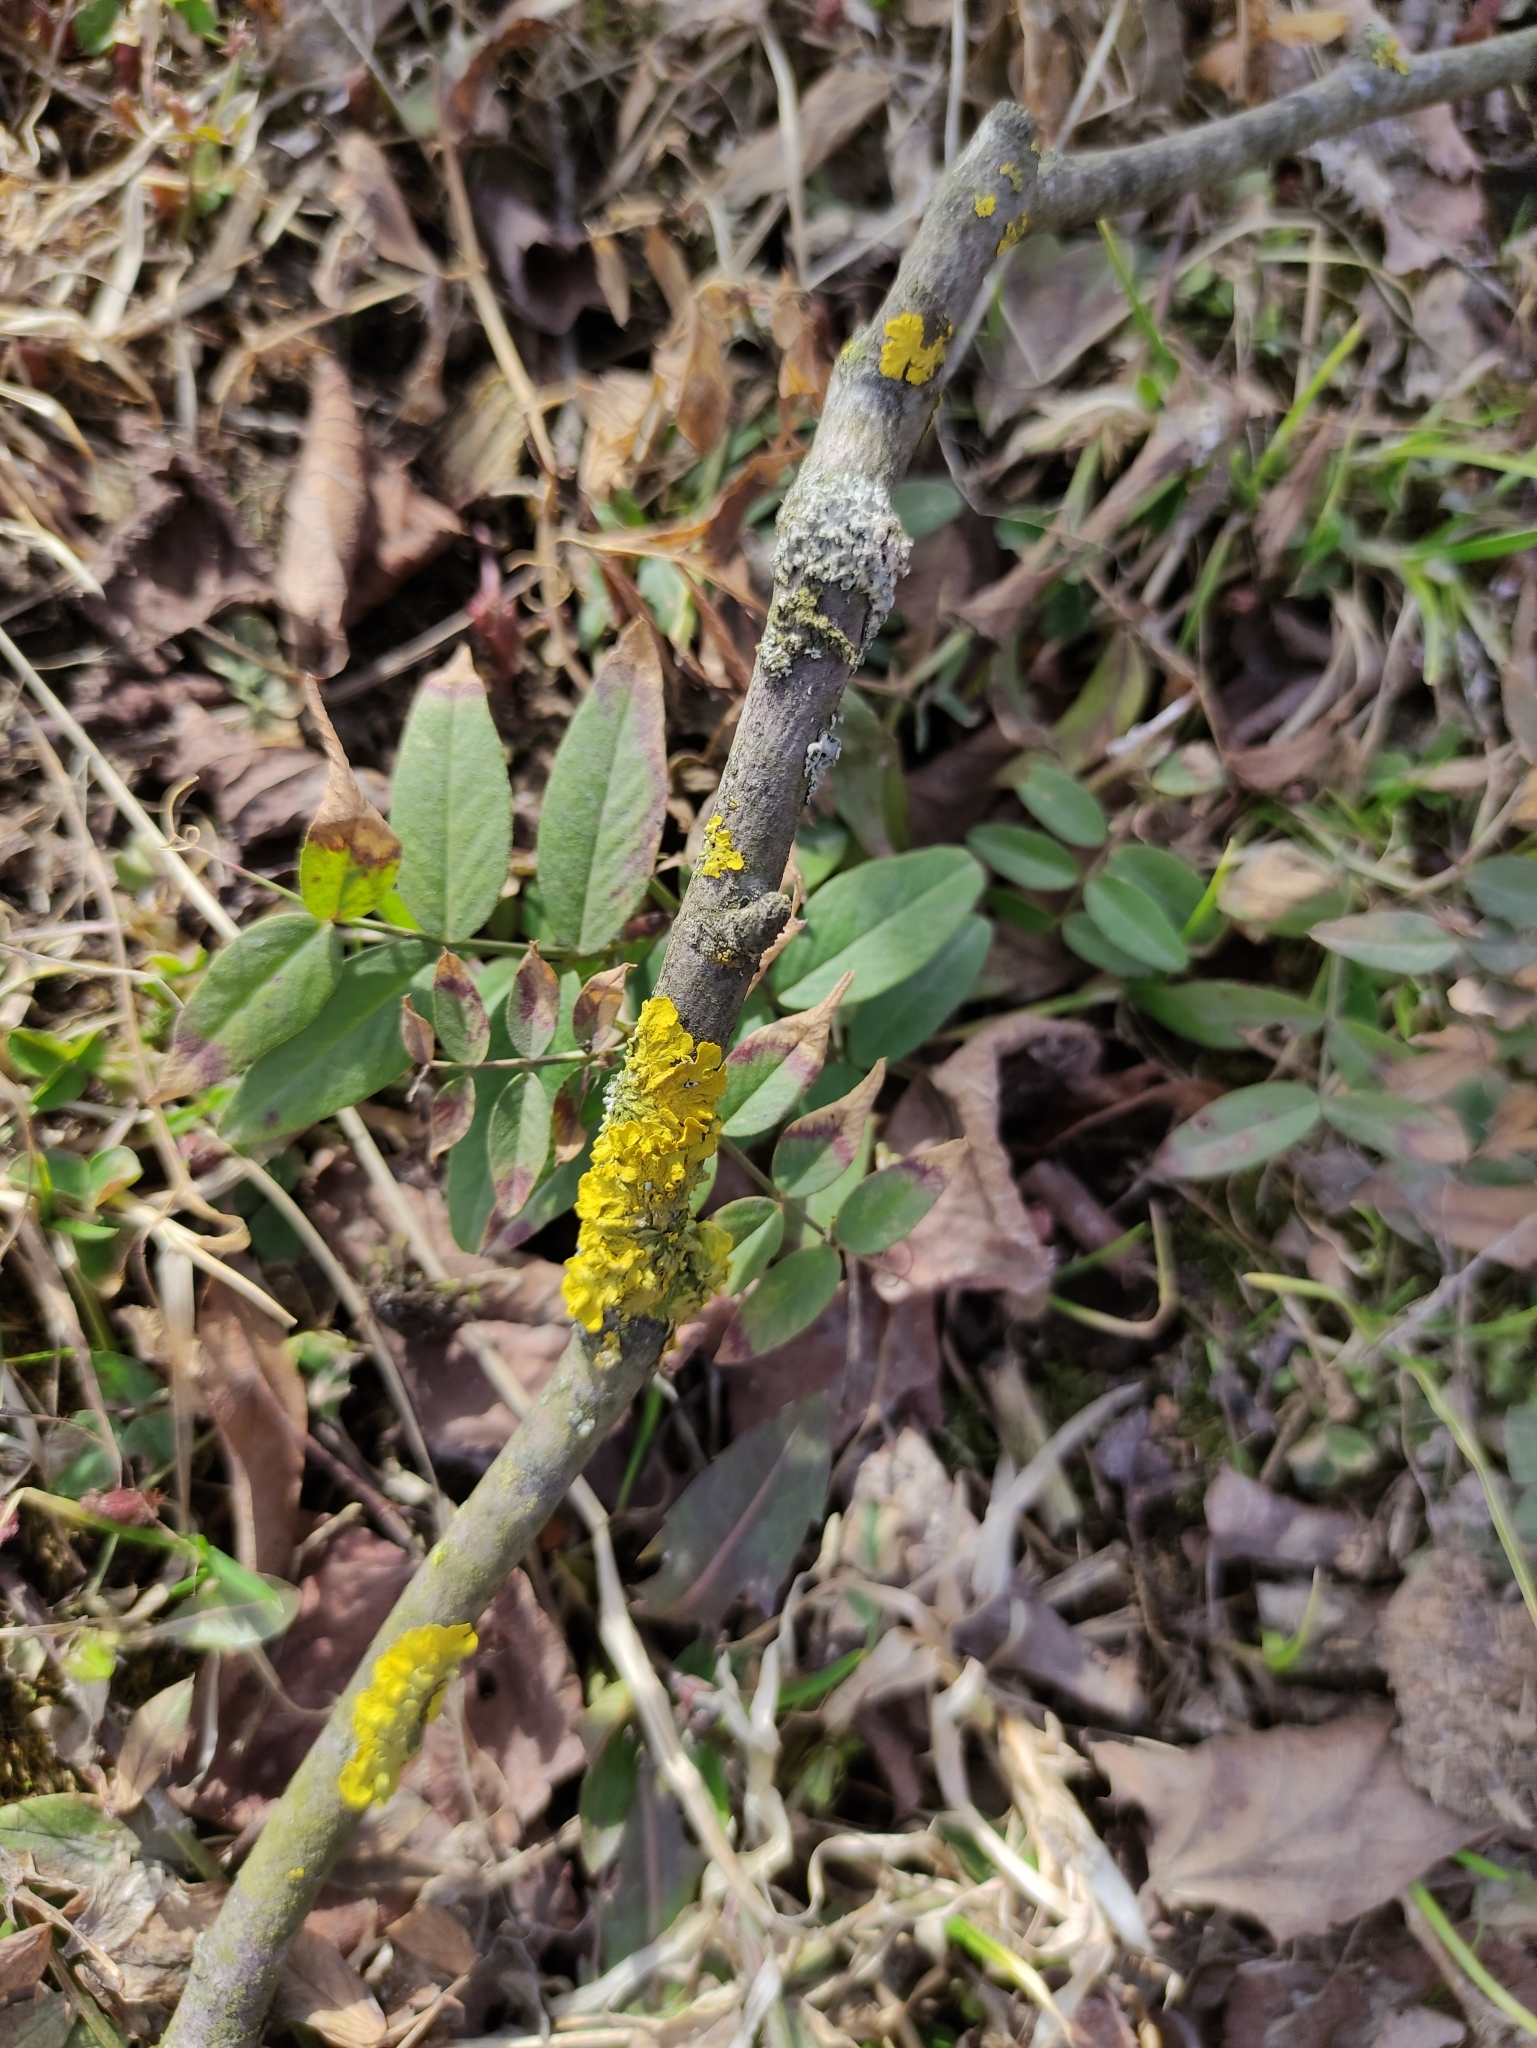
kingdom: Fungi
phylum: Ascomycota
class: Lecanoromycetes
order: Teloschistales
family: Teloschistaceae
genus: Xanthoria
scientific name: Xanthoria parietina
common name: Common orange lichen
